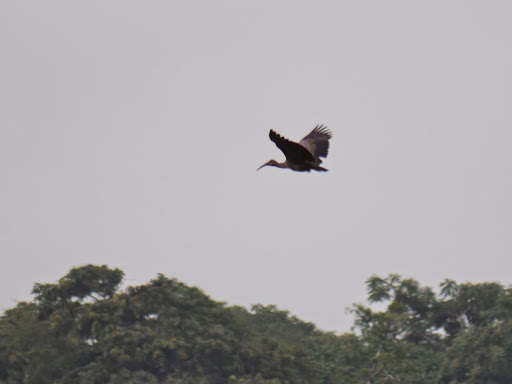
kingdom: Animalia
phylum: Chordata
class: Aves
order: Pelecaniformes
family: Threskiornithidae
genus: Bostrychia
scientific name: Bostrychia hagedash
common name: Hadada ibis
